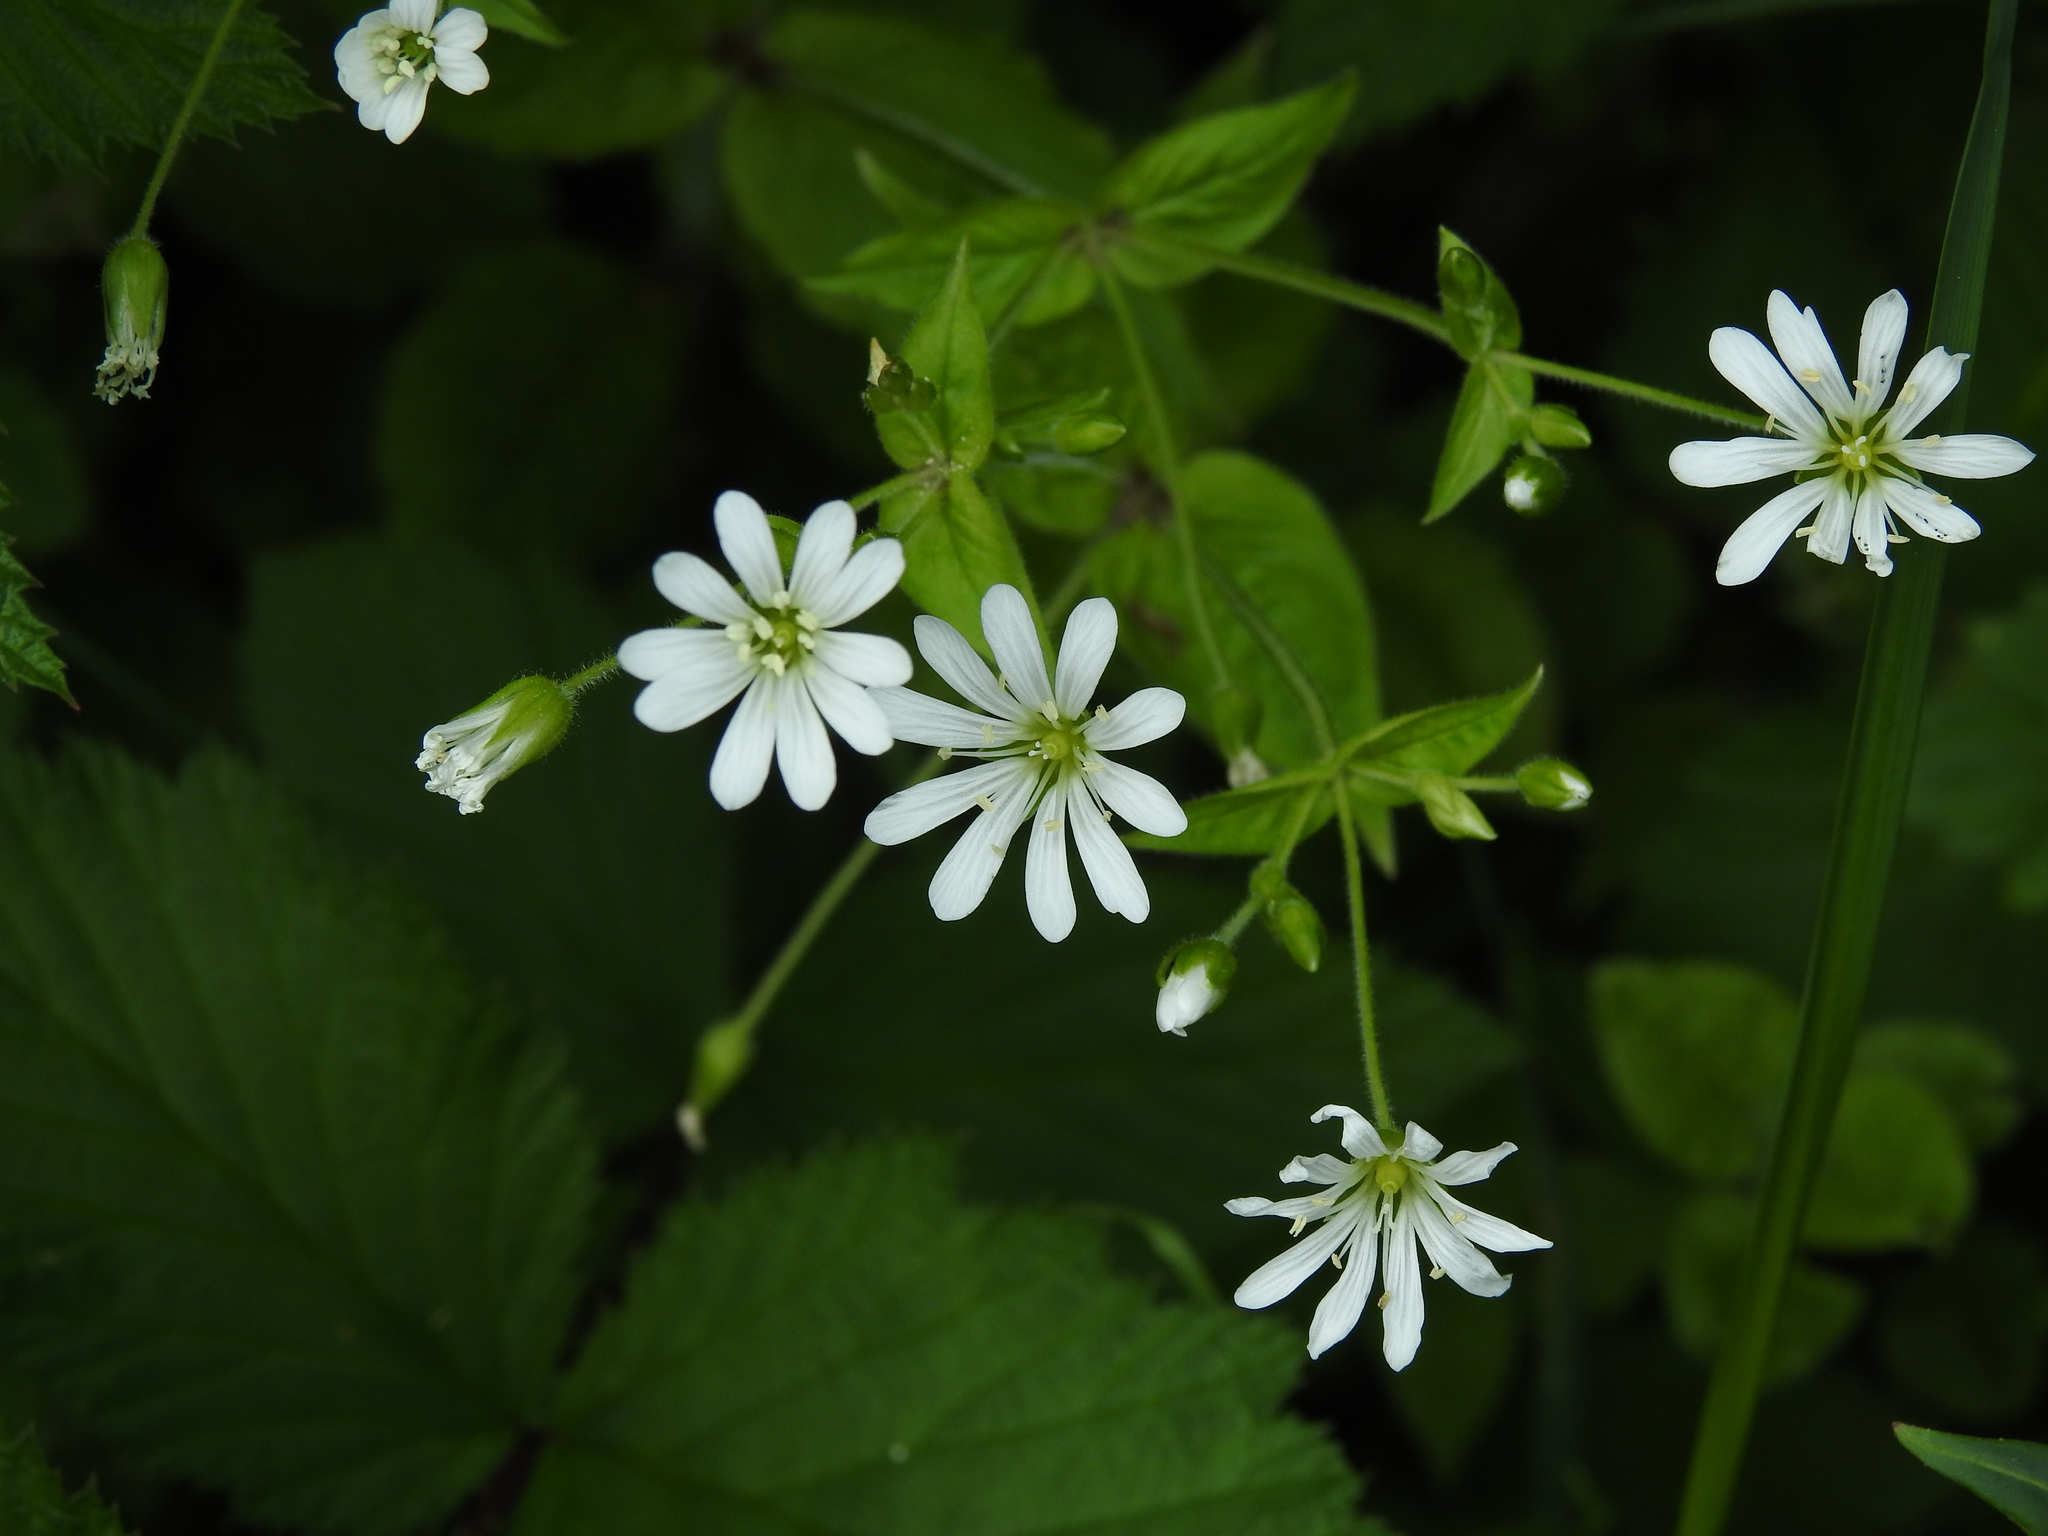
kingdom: Plantae
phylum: Tracheophyta
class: Magnoliopsida
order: Caryophyllales
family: Caryophyllaceae
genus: Stellaria
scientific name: Stellaria nemorum
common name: Wood stitchwort
